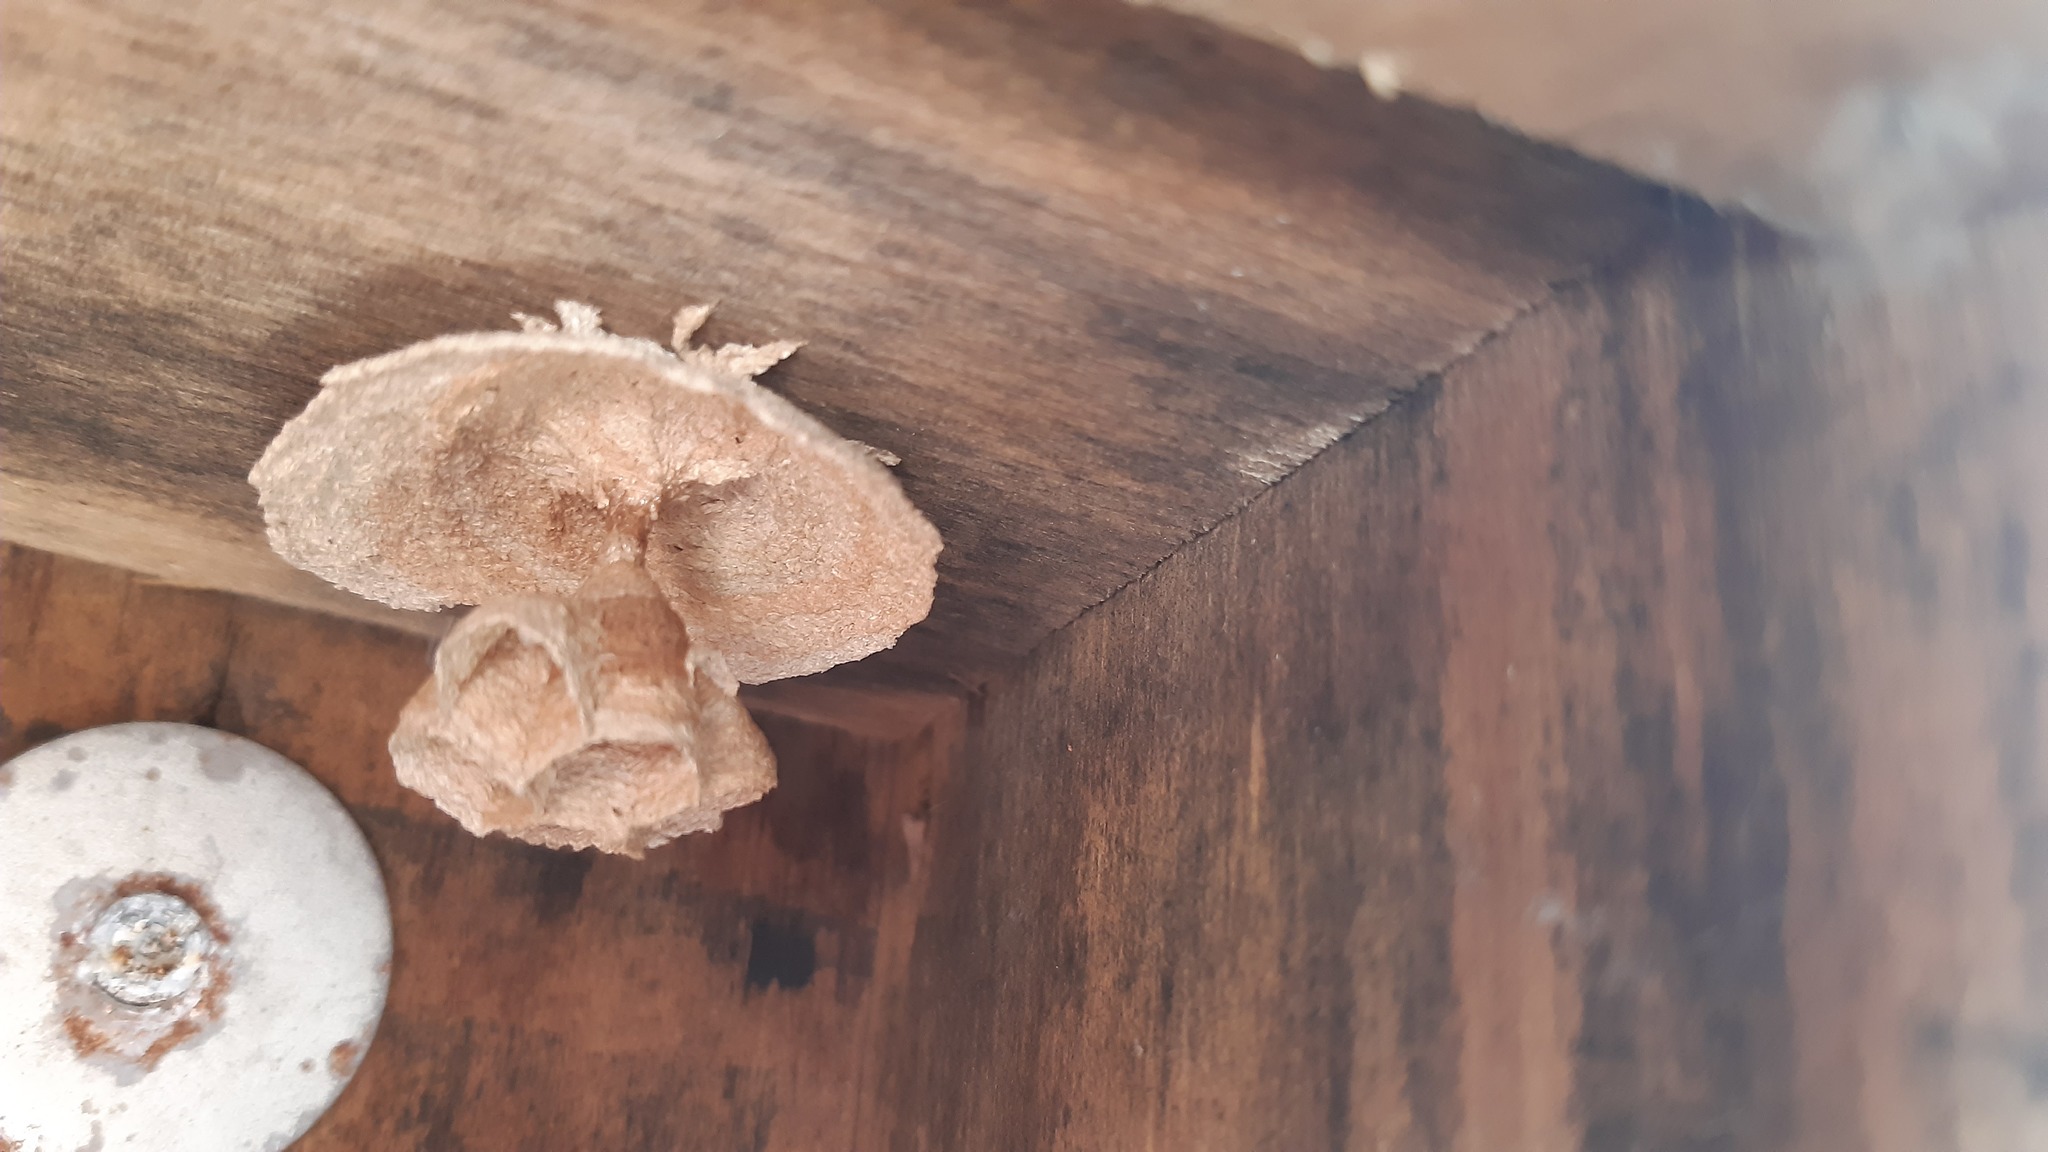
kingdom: Animalia
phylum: Arthropoda
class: Insecta
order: Hymenoptera
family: Vespidae
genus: Vespa
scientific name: Vespa crabro
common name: Hornet
